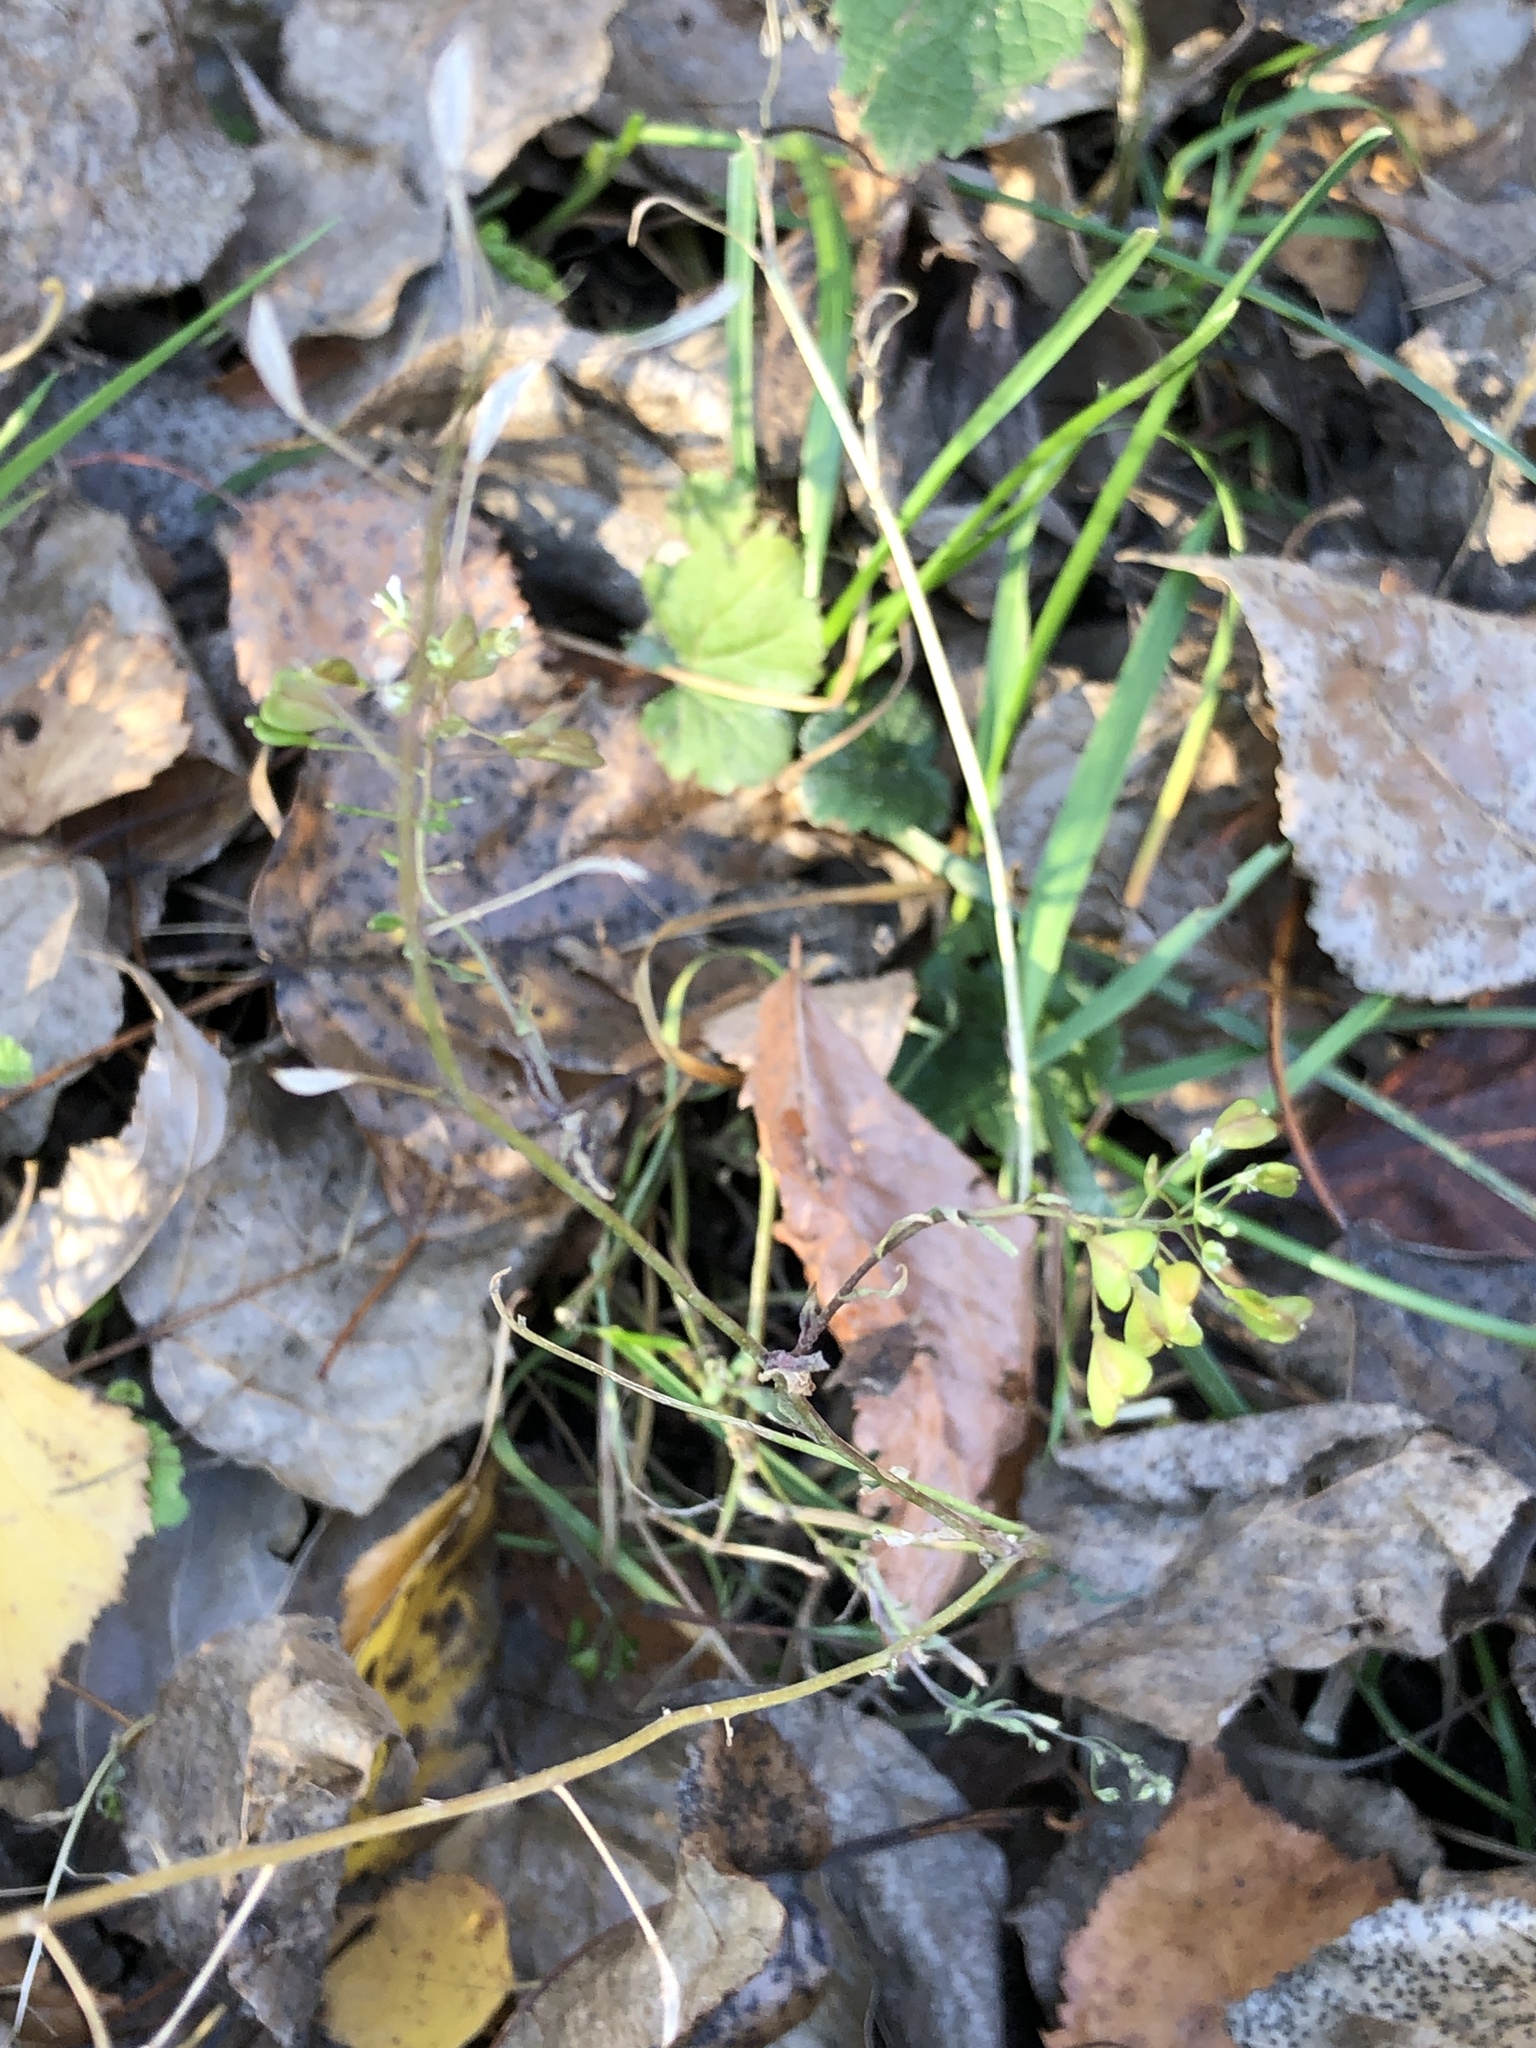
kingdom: Plantae
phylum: Tracheophyta
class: Magnoliopsida
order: Brassicales
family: Brassicaceae
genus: Capsella
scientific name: Capsella bursa-pastoris
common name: Shepherd's purse
